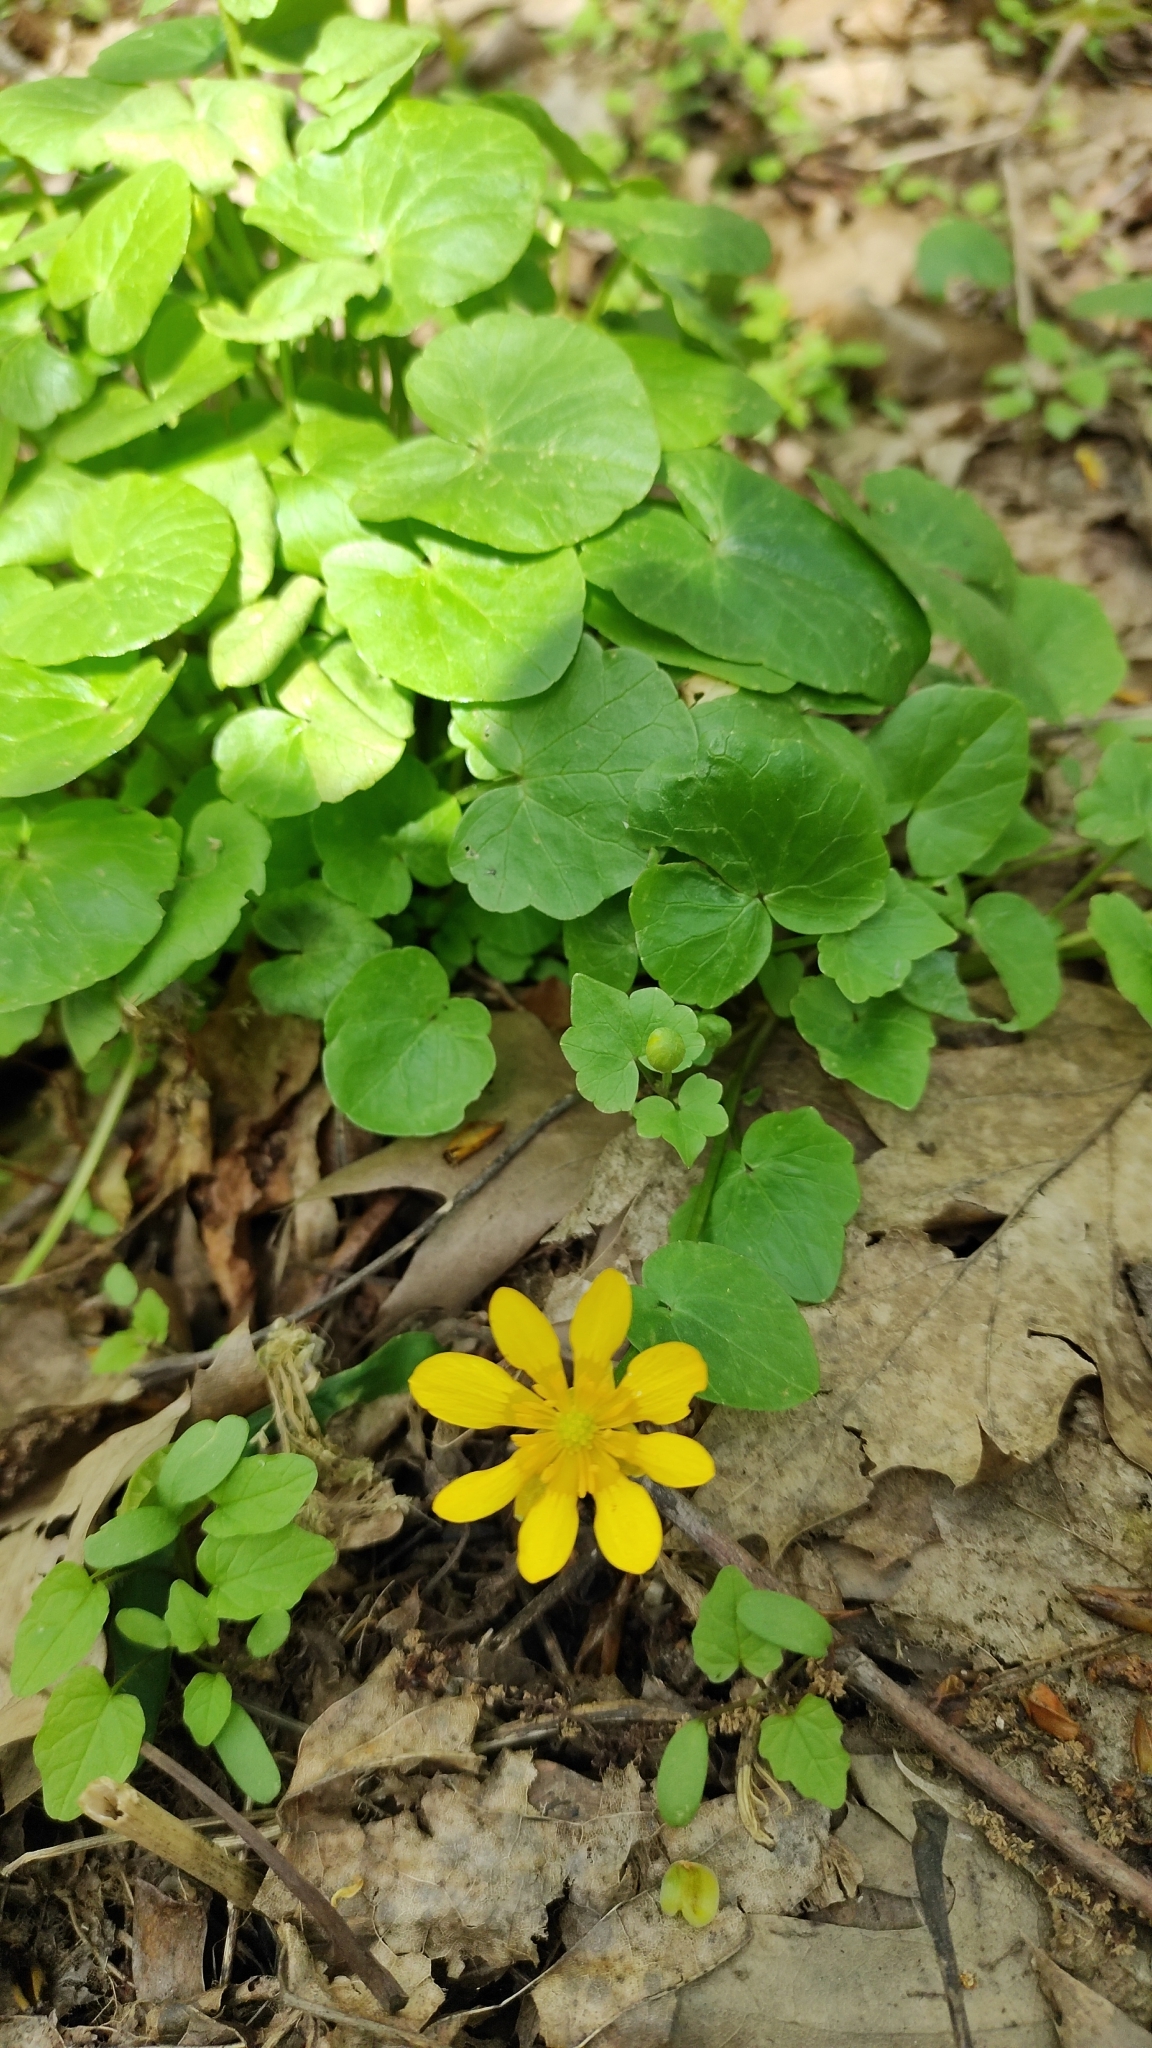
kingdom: Plantae
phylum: Tracheophyta
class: Magnoliopsida
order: Ranunculales
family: Ranunculaceae
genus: Ficaria
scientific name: Ficaria verna
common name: Lesser celandine
